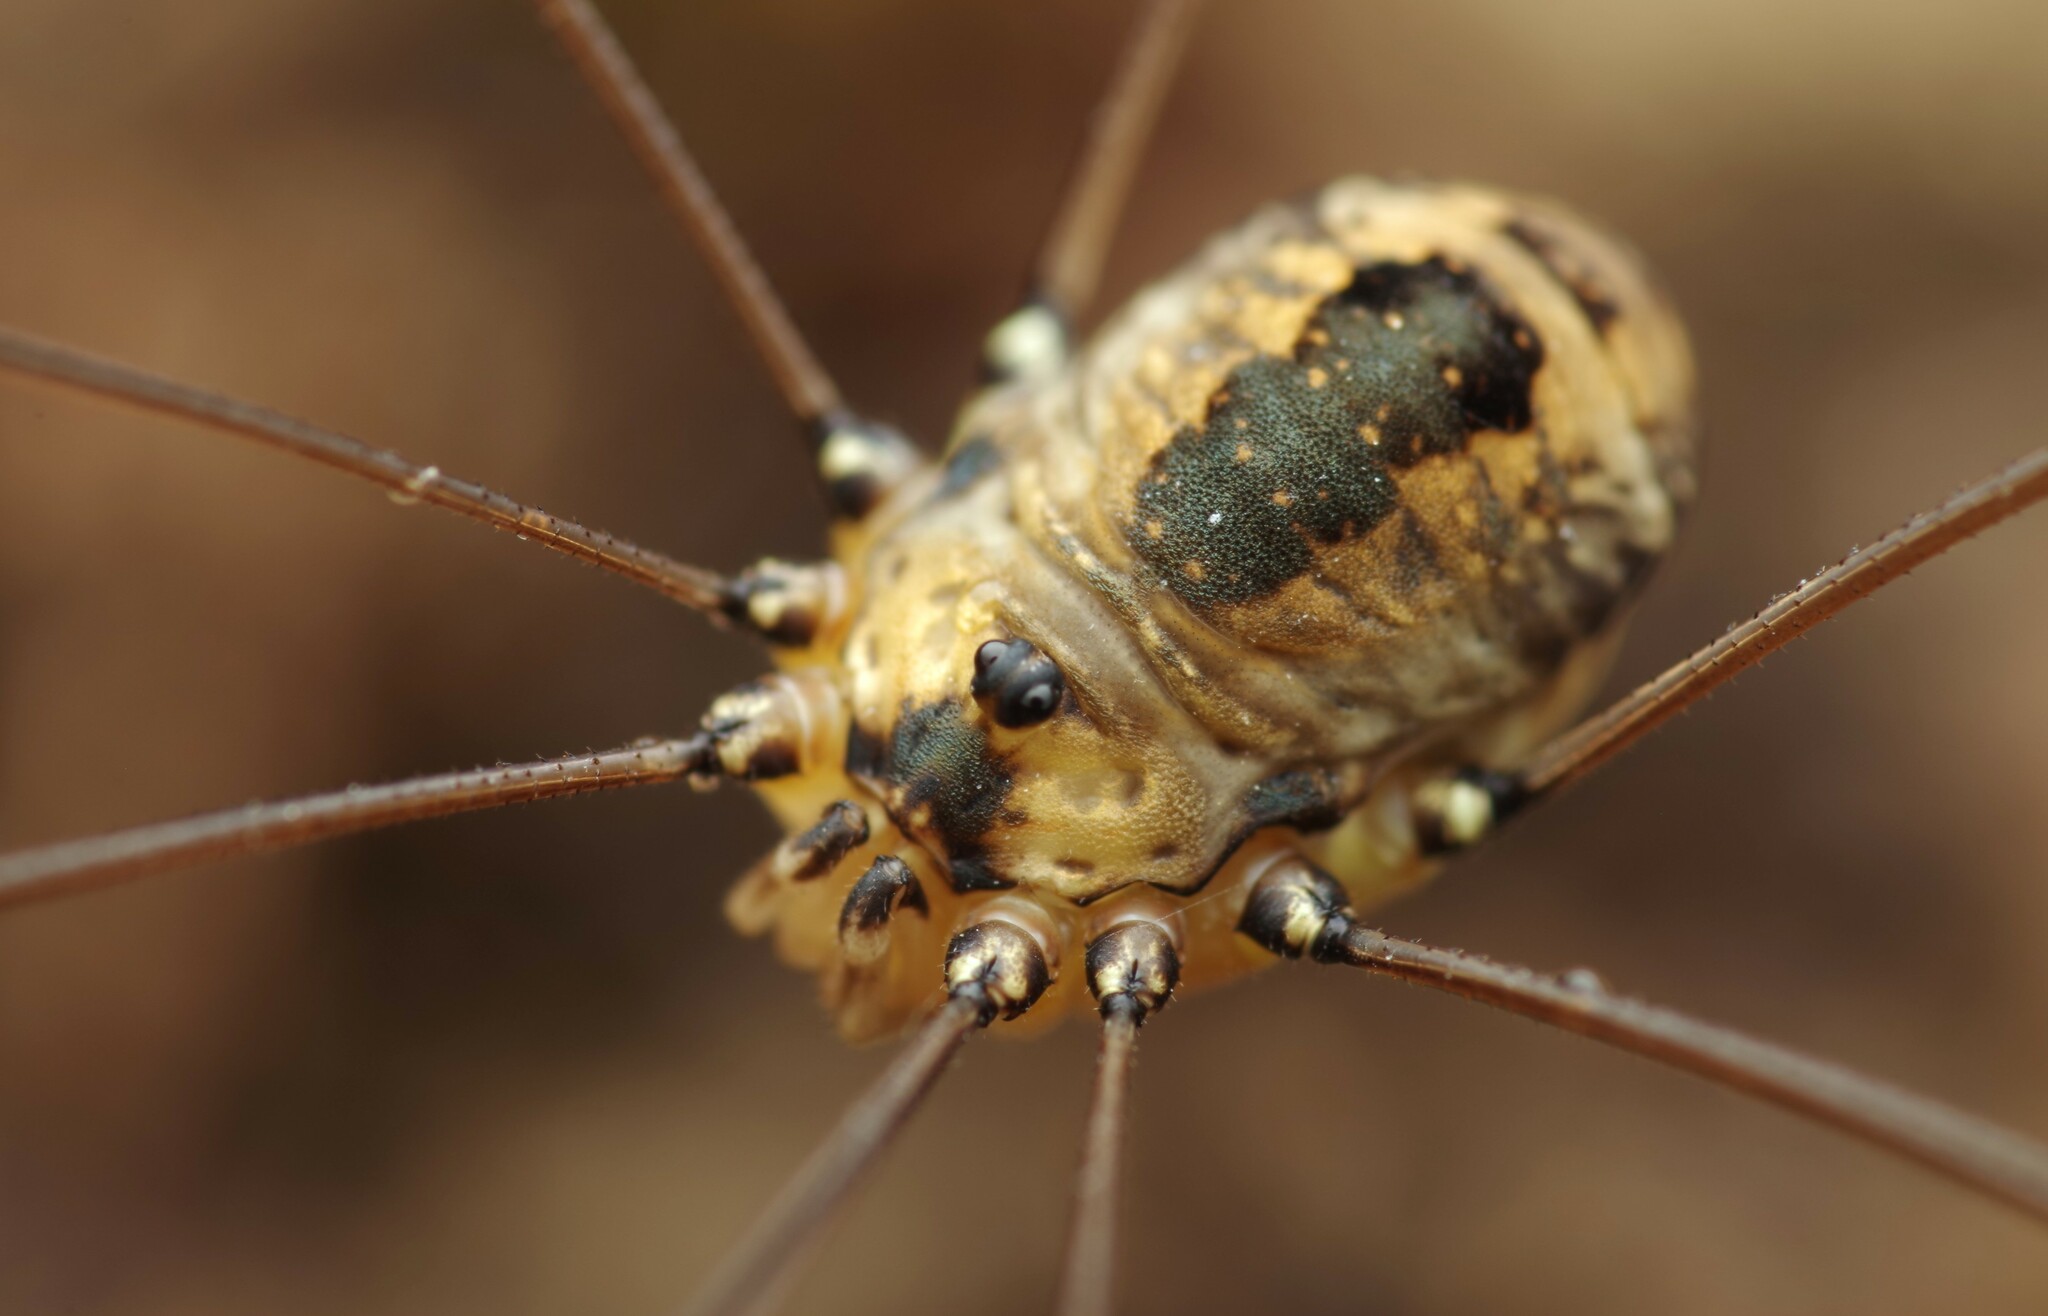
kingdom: Animalia
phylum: Arthropoda
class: Arachnida
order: Opiliones
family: Sclerosomatidae
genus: Leiobunum
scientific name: Leiobunum rotundum
